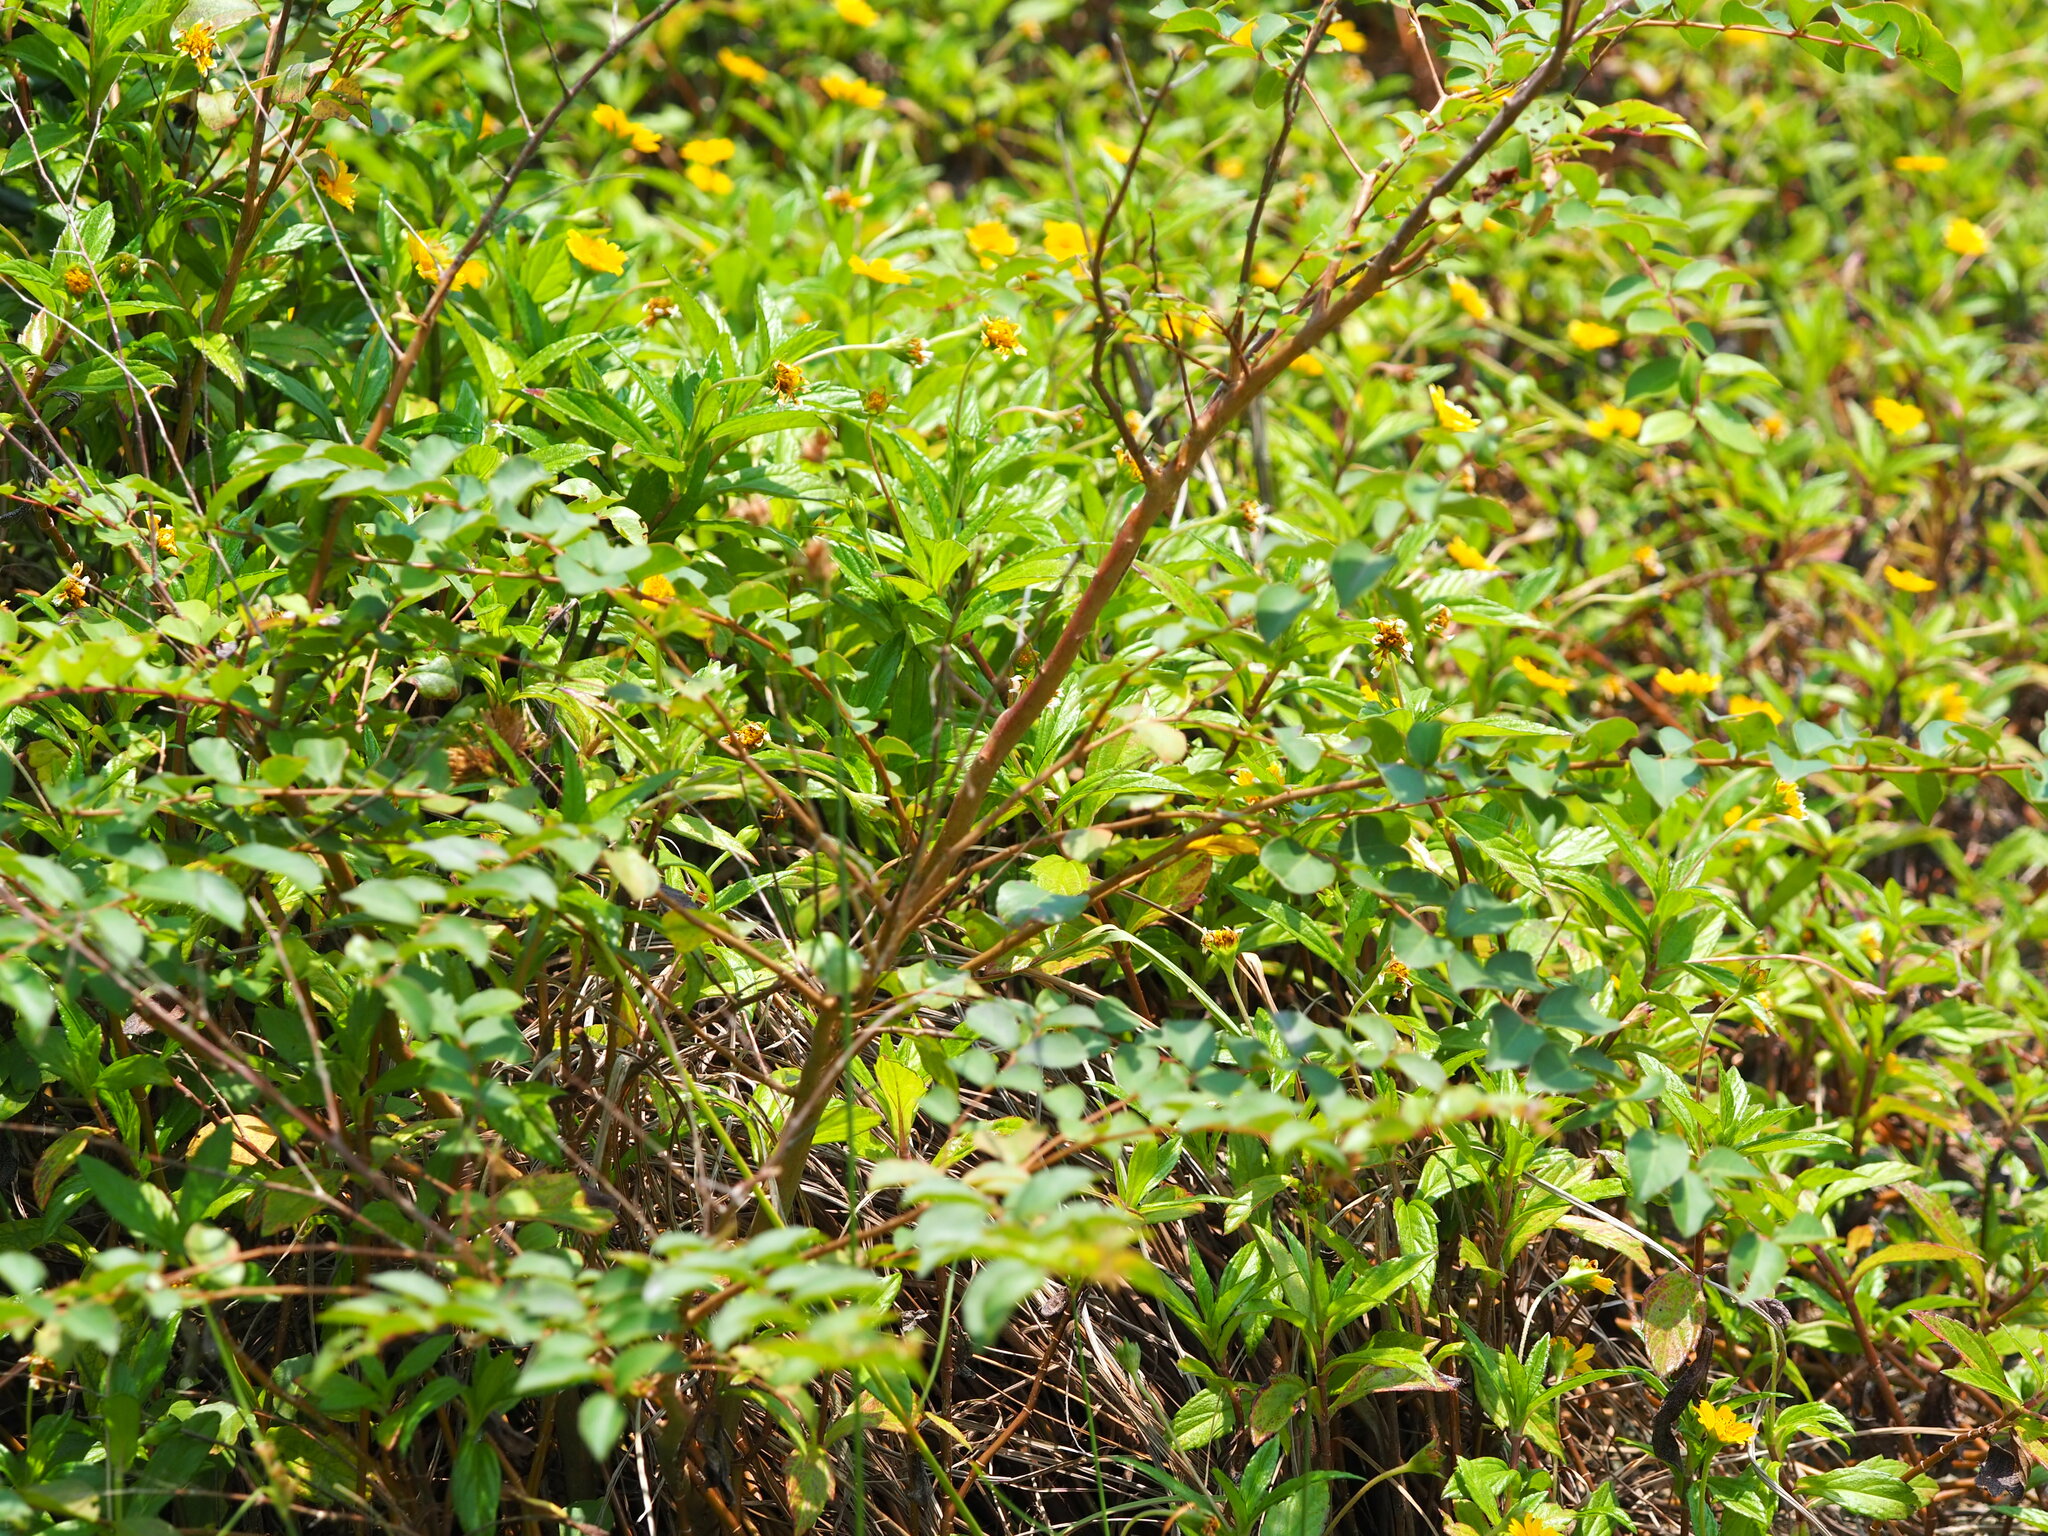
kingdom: Plantae
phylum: Tracheophyta
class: Magnoliopsida
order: Myrtales
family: Lythraceae
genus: Lagerstroemia
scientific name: Lagerstroemia subcostata
